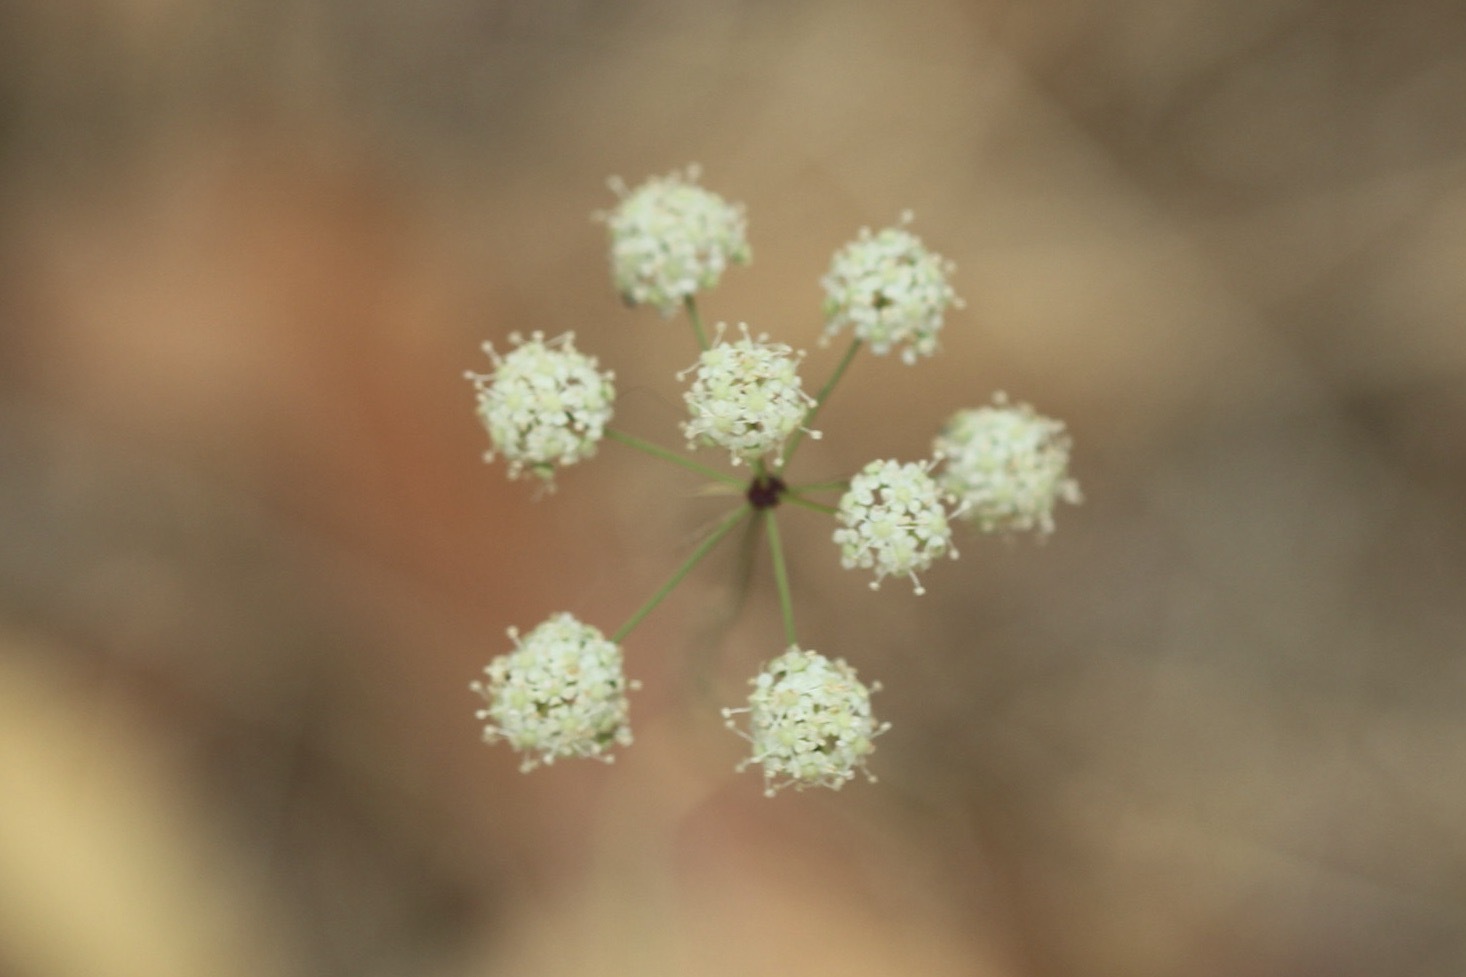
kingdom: Plantae
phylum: Tracheophyta
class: Magnoliopsida
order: Apiales
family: Apiaceae
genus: Perideridia
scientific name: Perideridia kelloggii
